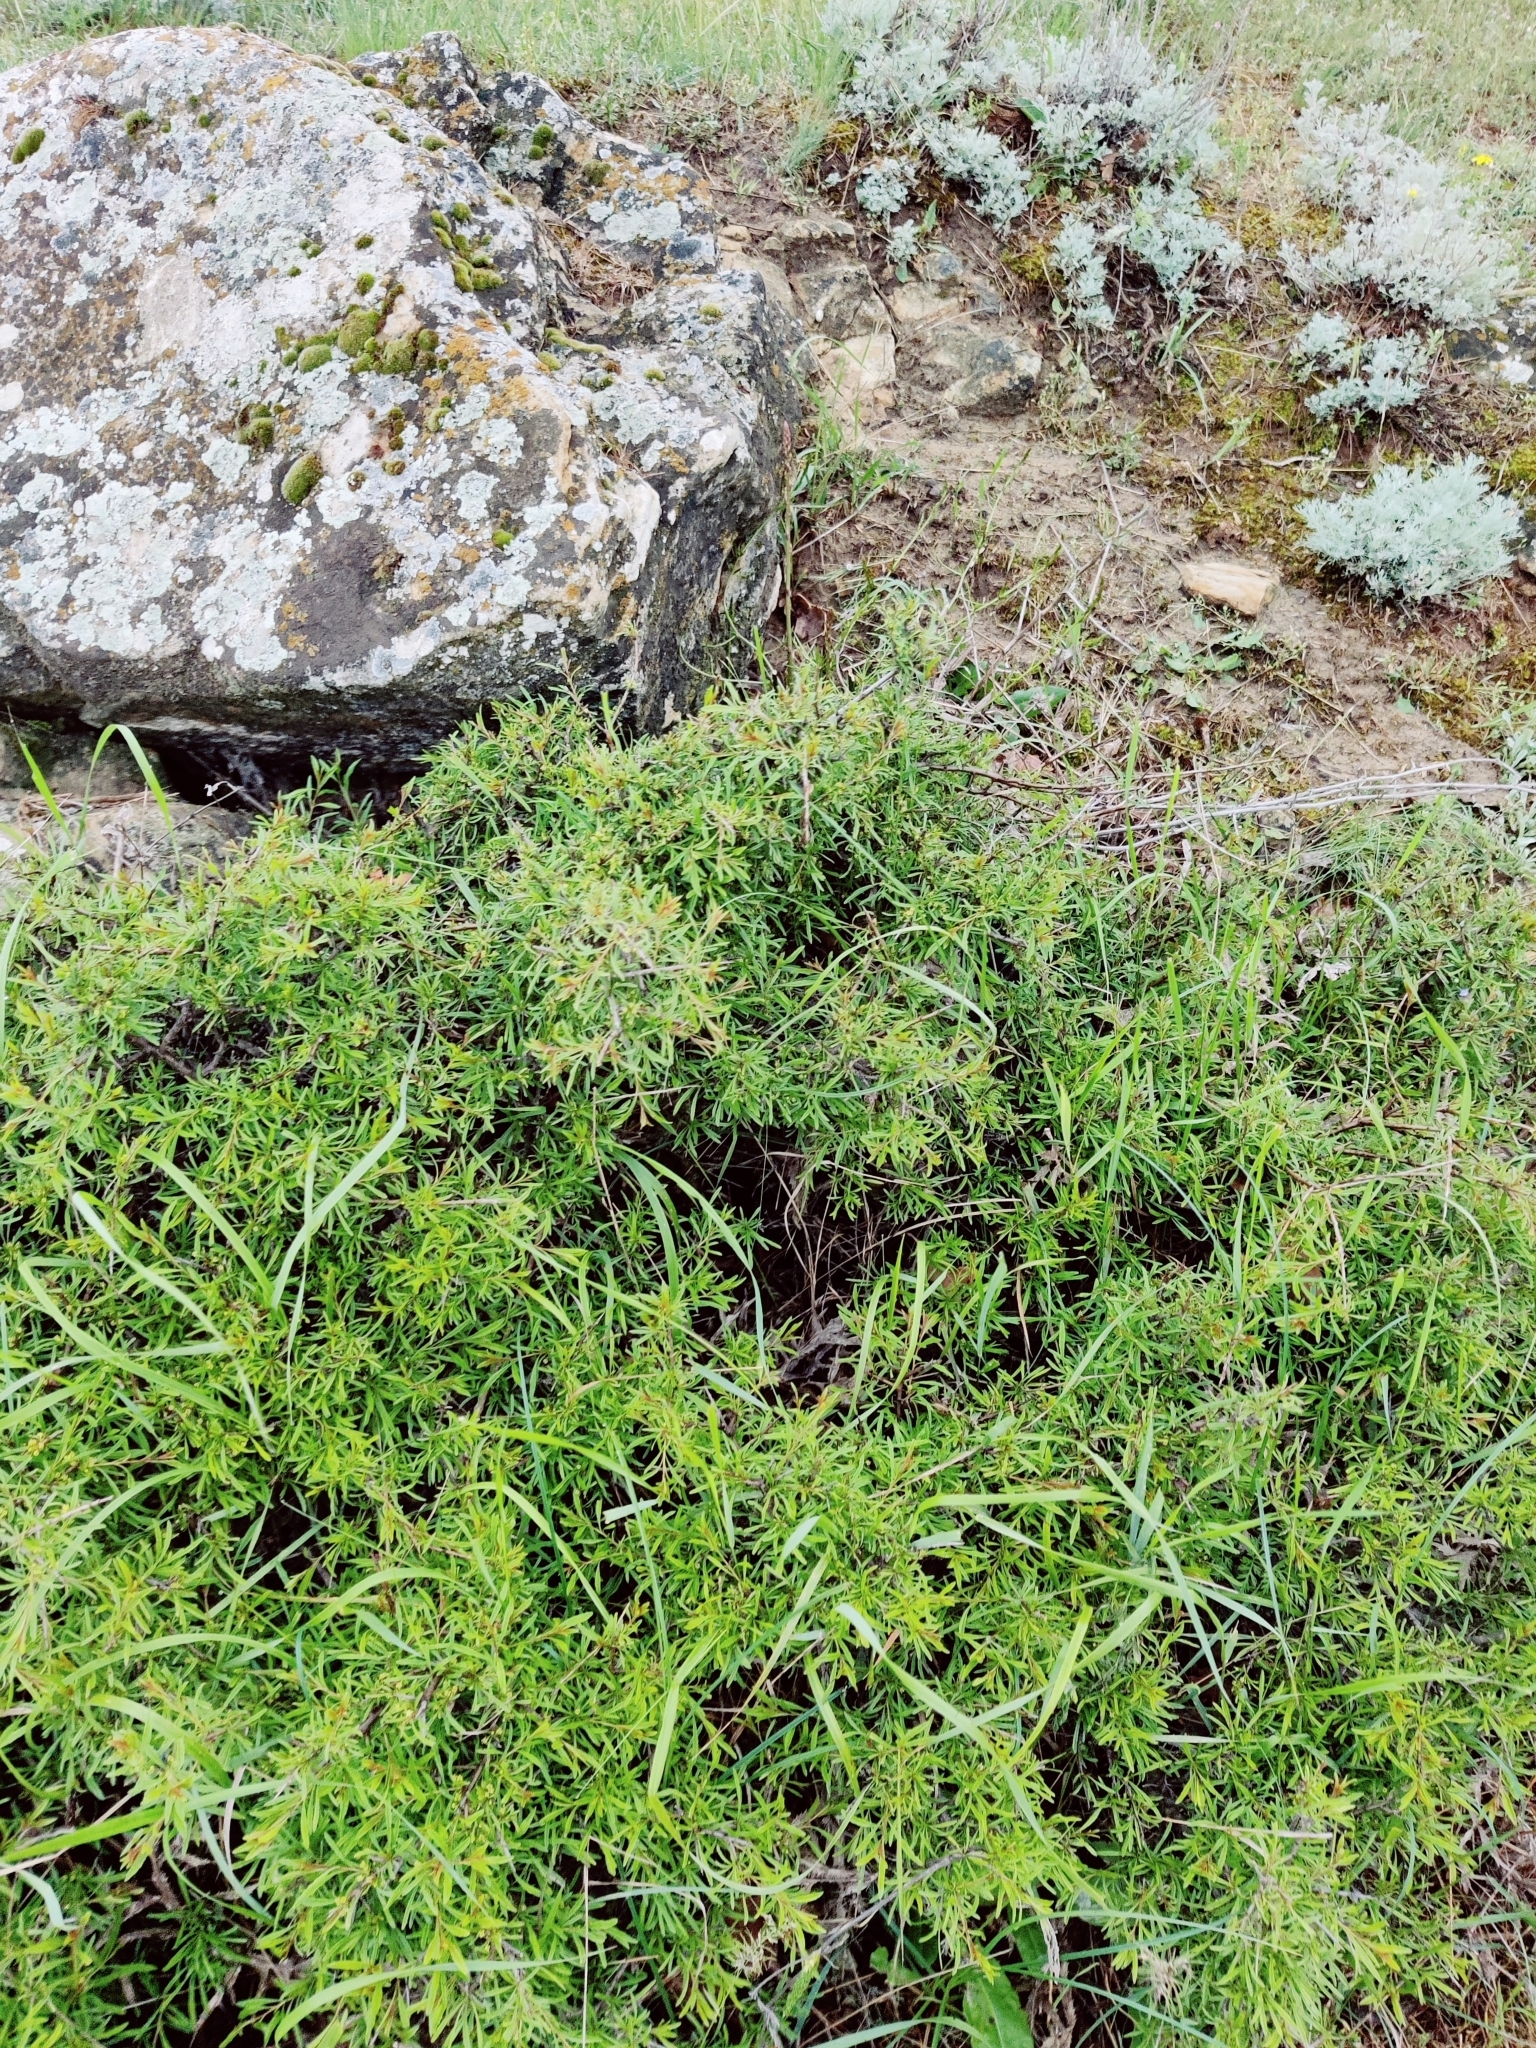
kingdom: Plantae
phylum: Tracheophyta
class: Magnoliopsida
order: Rosales
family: Rhamnaceae
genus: Rhamnus
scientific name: Rhamnus erythroxyloides
